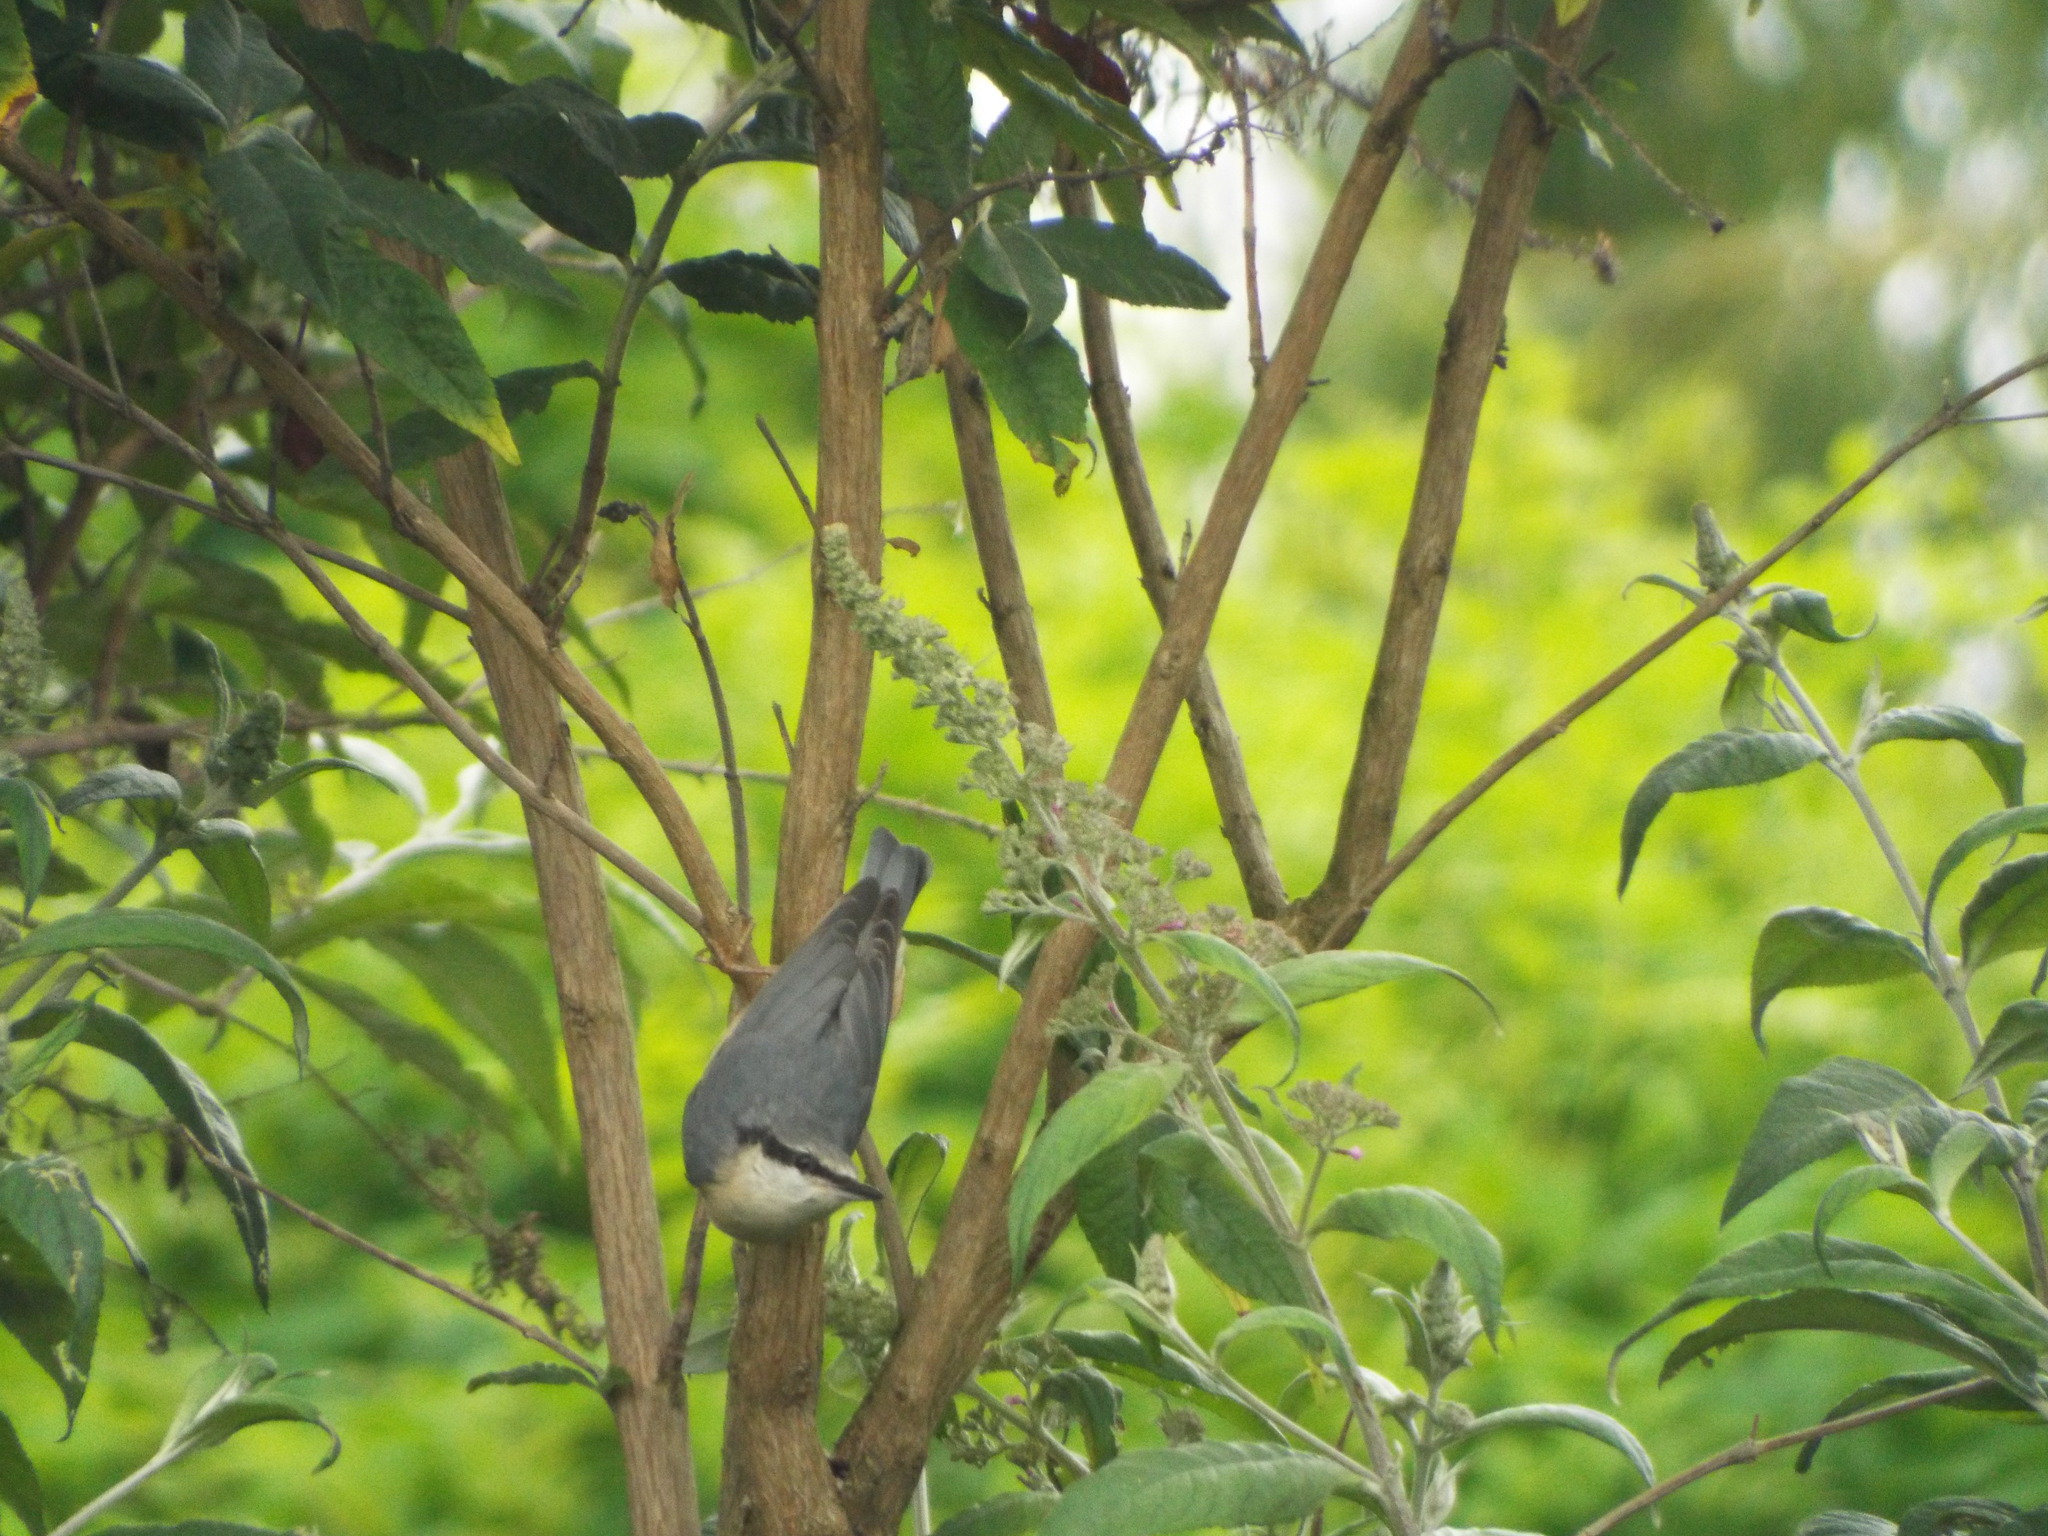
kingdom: Animalia
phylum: Chordata
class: Aves
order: Passeriformes
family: Sittidae
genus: Sitta
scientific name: Sitta europaea
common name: Eurasian nuthatch
